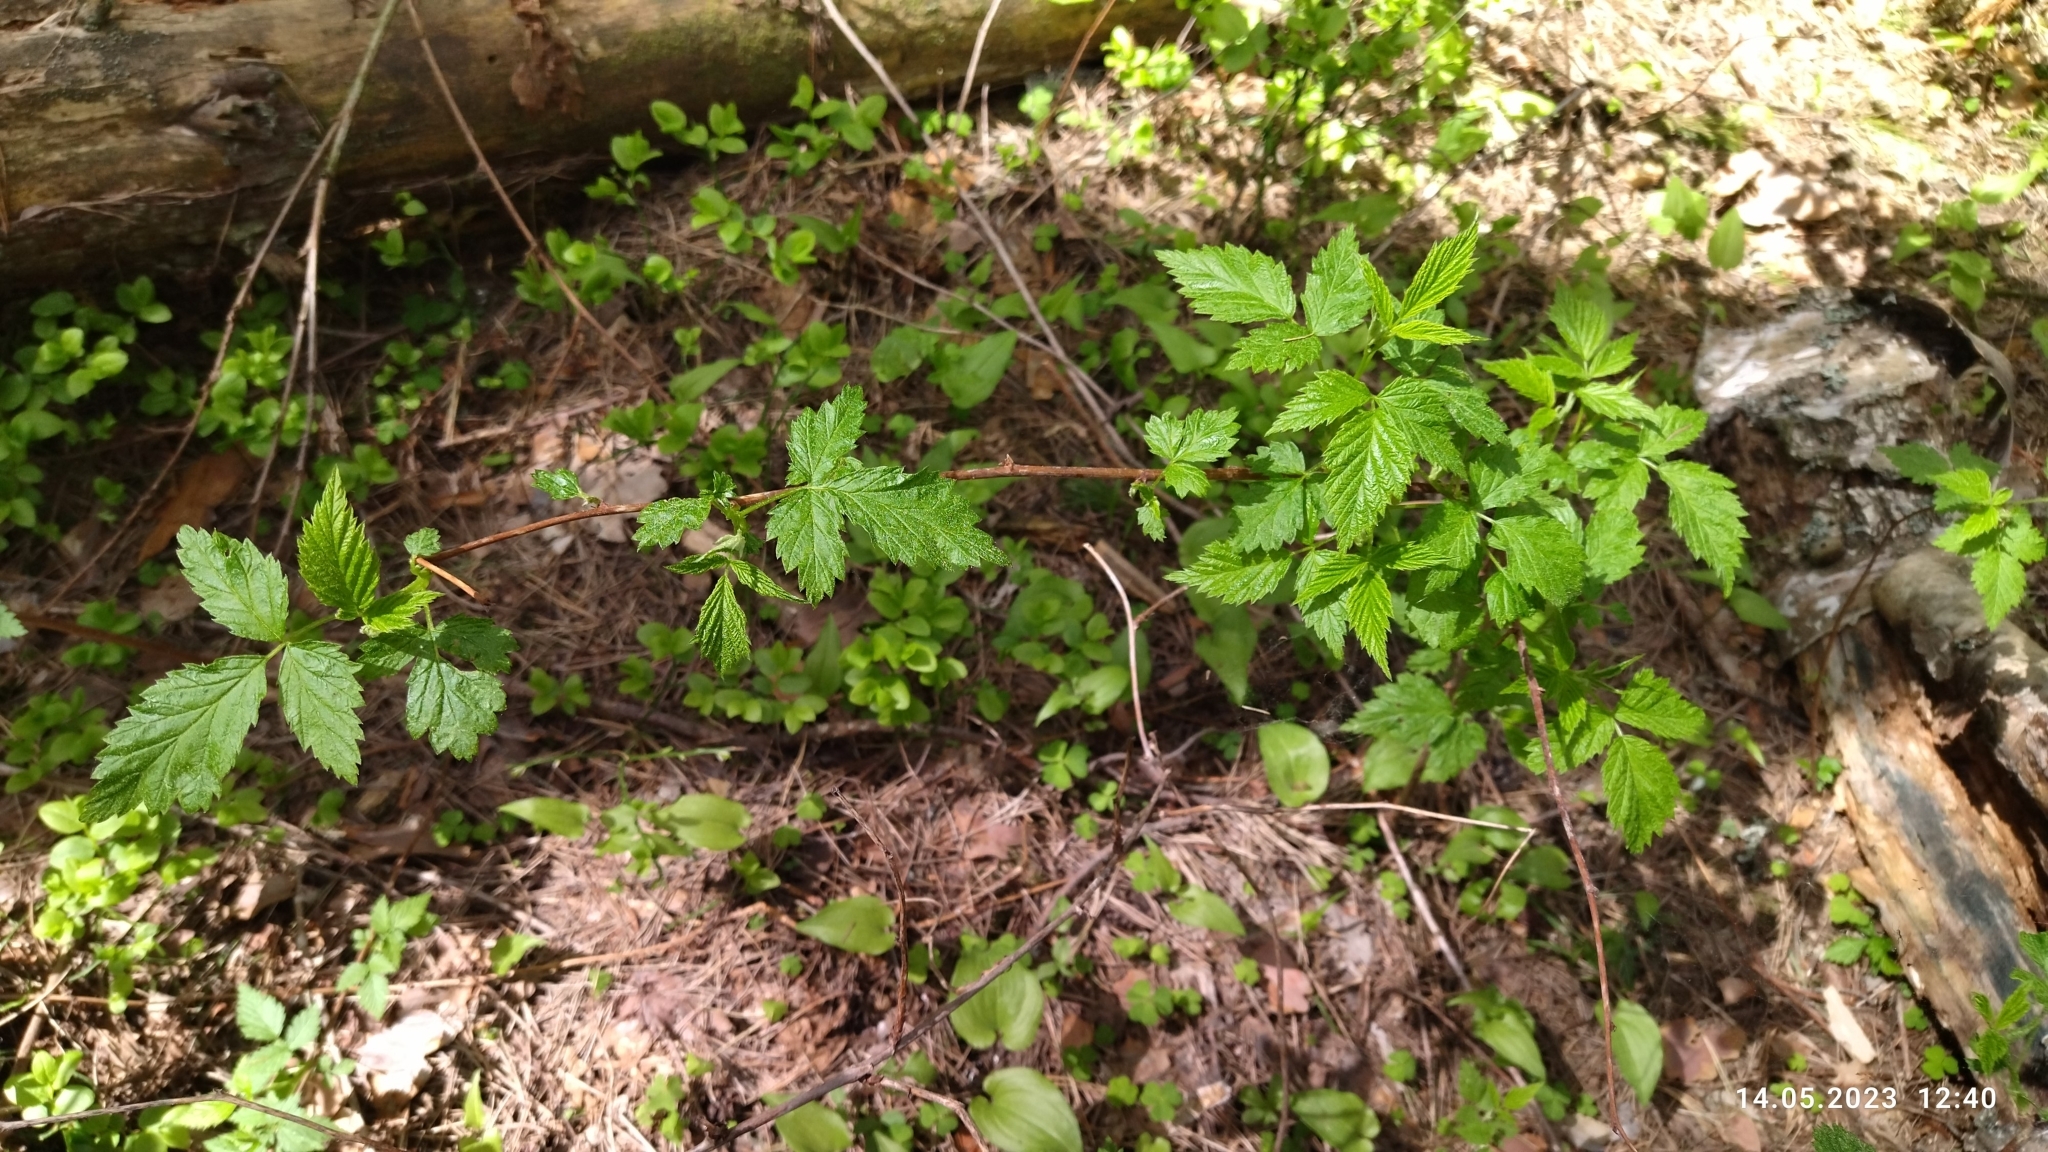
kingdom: Plantae
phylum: Tracheophyta
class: Magnoliopsida
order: Rosales
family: Rosaceae
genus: Rubus
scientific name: Rubus idaeus
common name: Raspberry
